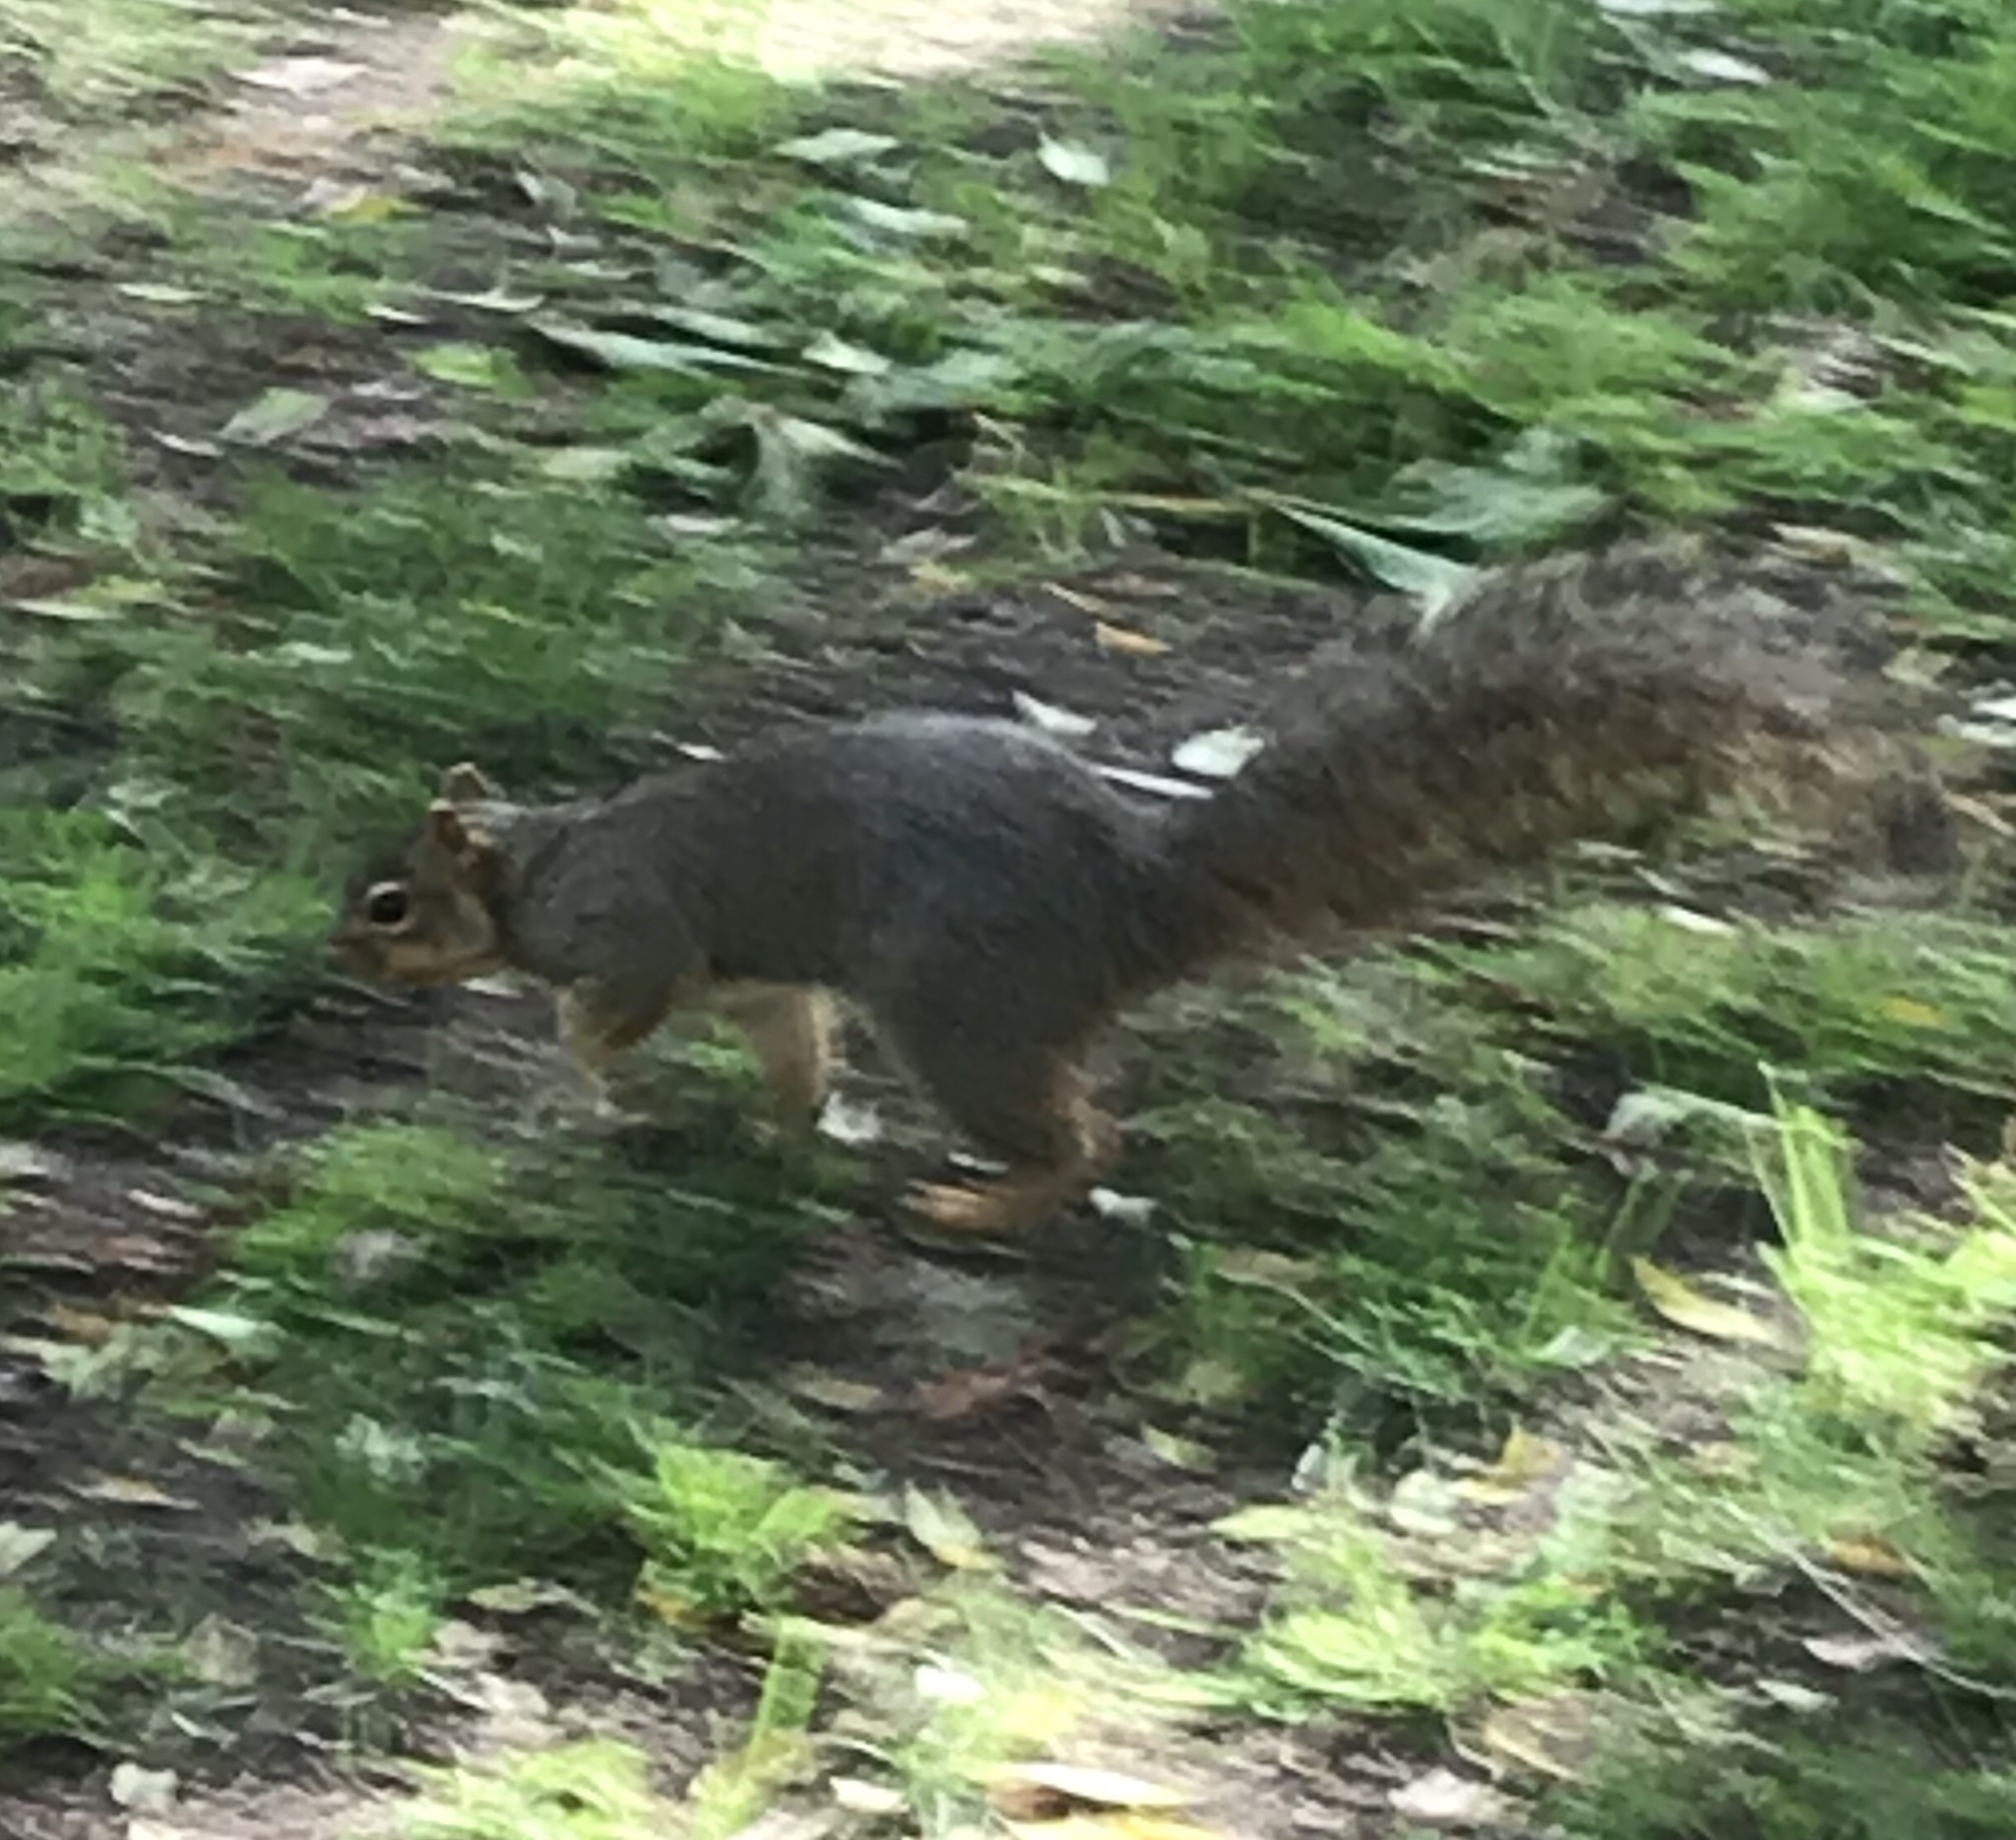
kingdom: Animalia
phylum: Chordata
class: Mammalia
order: Rodentia
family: Sciuridae
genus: Sciurus
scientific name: Sciurus niger
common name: Fox squirrel
